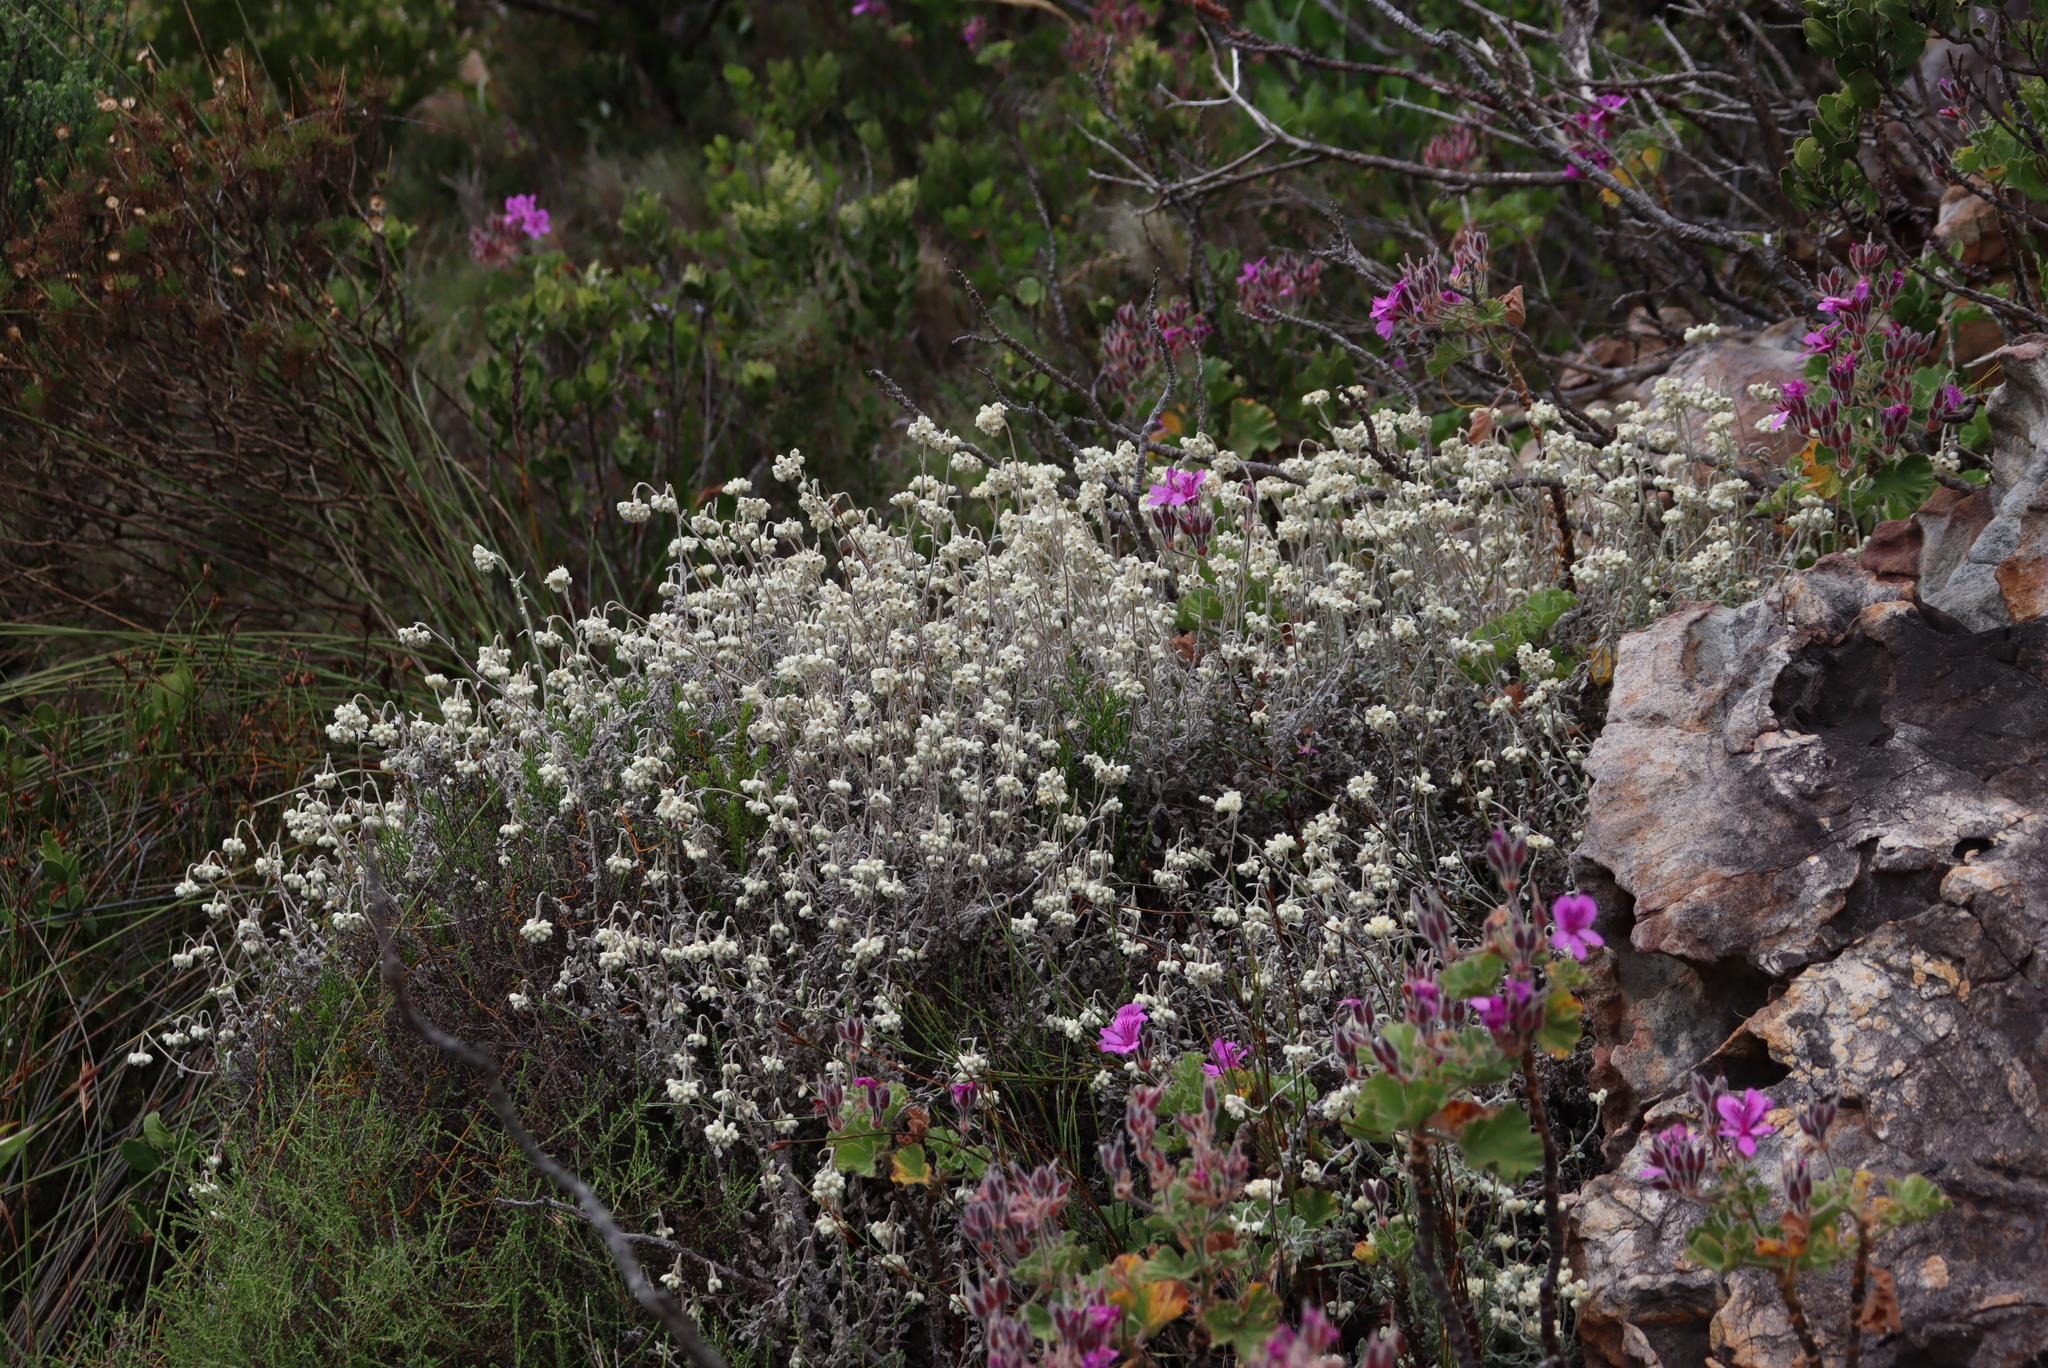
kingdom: Plantae
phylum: Tracheophyta
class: Magnoliopsida
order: Asterales
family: Asteraceae
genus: Helichrysum
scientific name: Helichrysum pandurifolium
